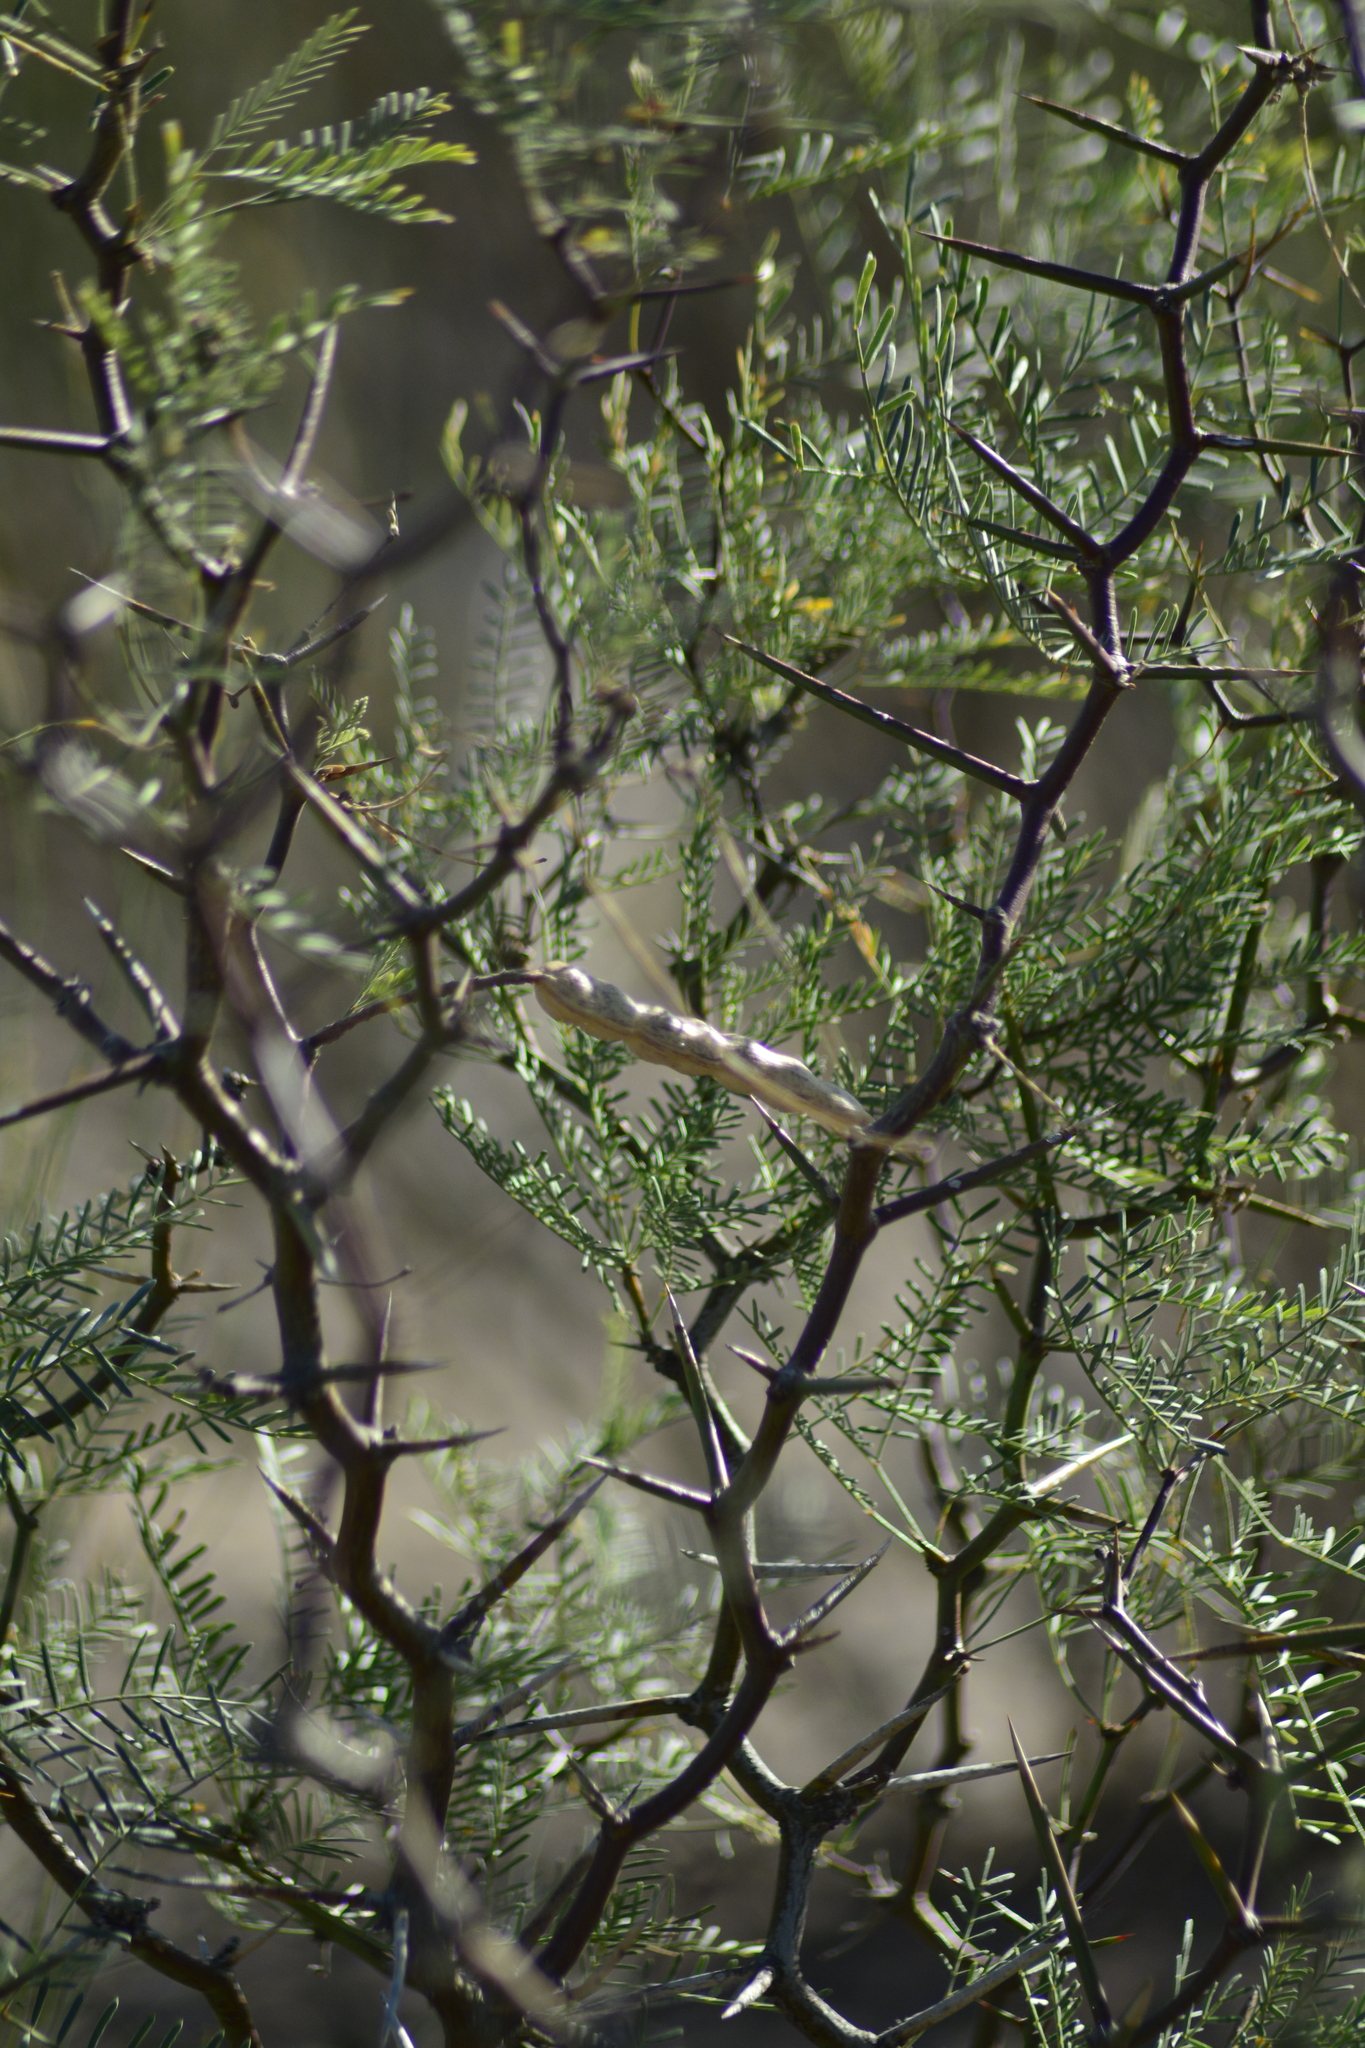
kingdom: Plantae
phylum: Tracheophyta
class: Magnoliopsida
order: Fabales
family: Fabaceae
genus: Prosopis
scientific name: Prosopis alpataco
